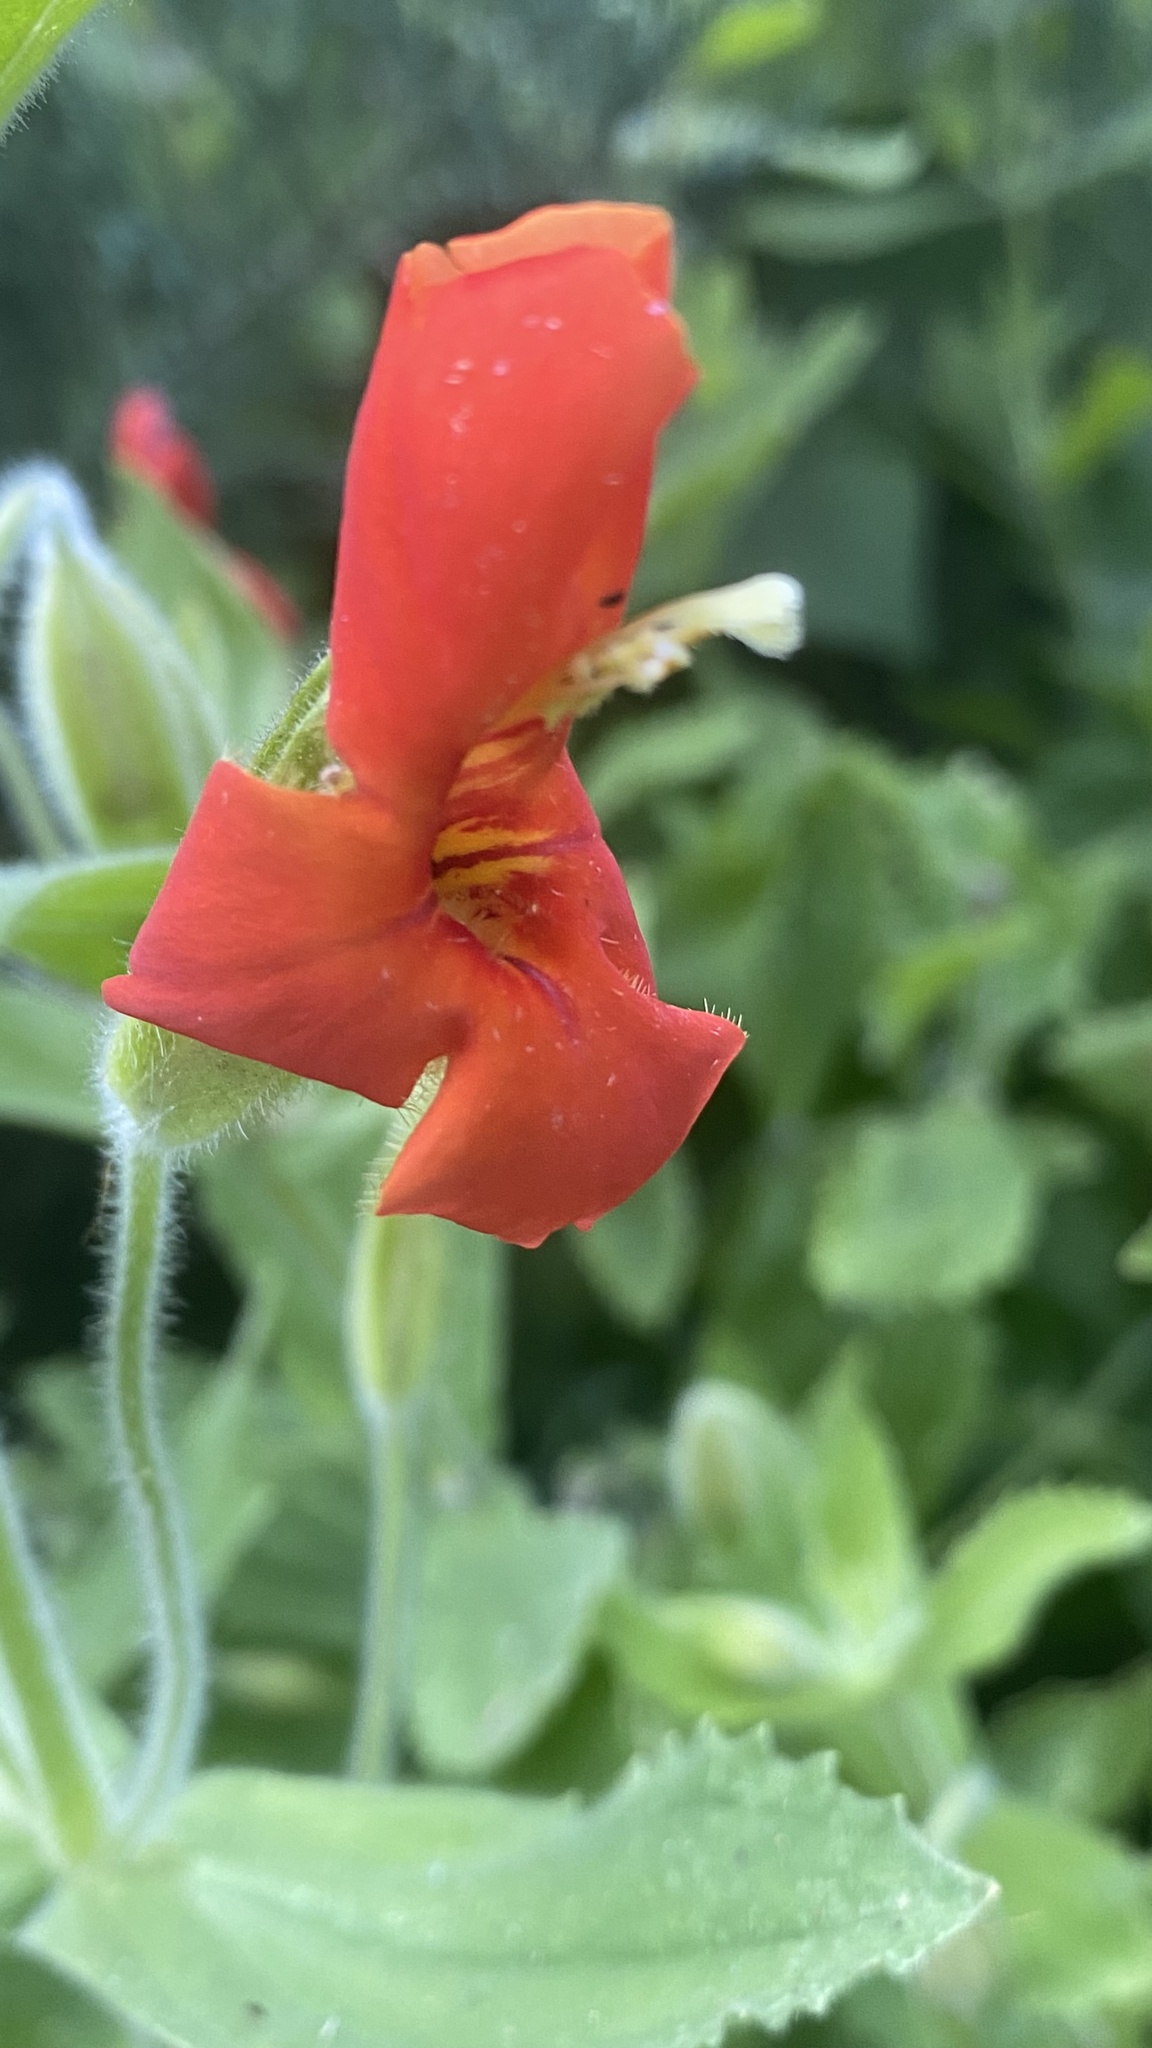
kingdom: Plantae
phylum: Tracheophyta
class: Magnoliopsida
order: Lamiales
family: Phrymaceae
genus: Erythranthe
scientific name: Erythranthe cardinalis
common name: Scarlet monkey-flower
